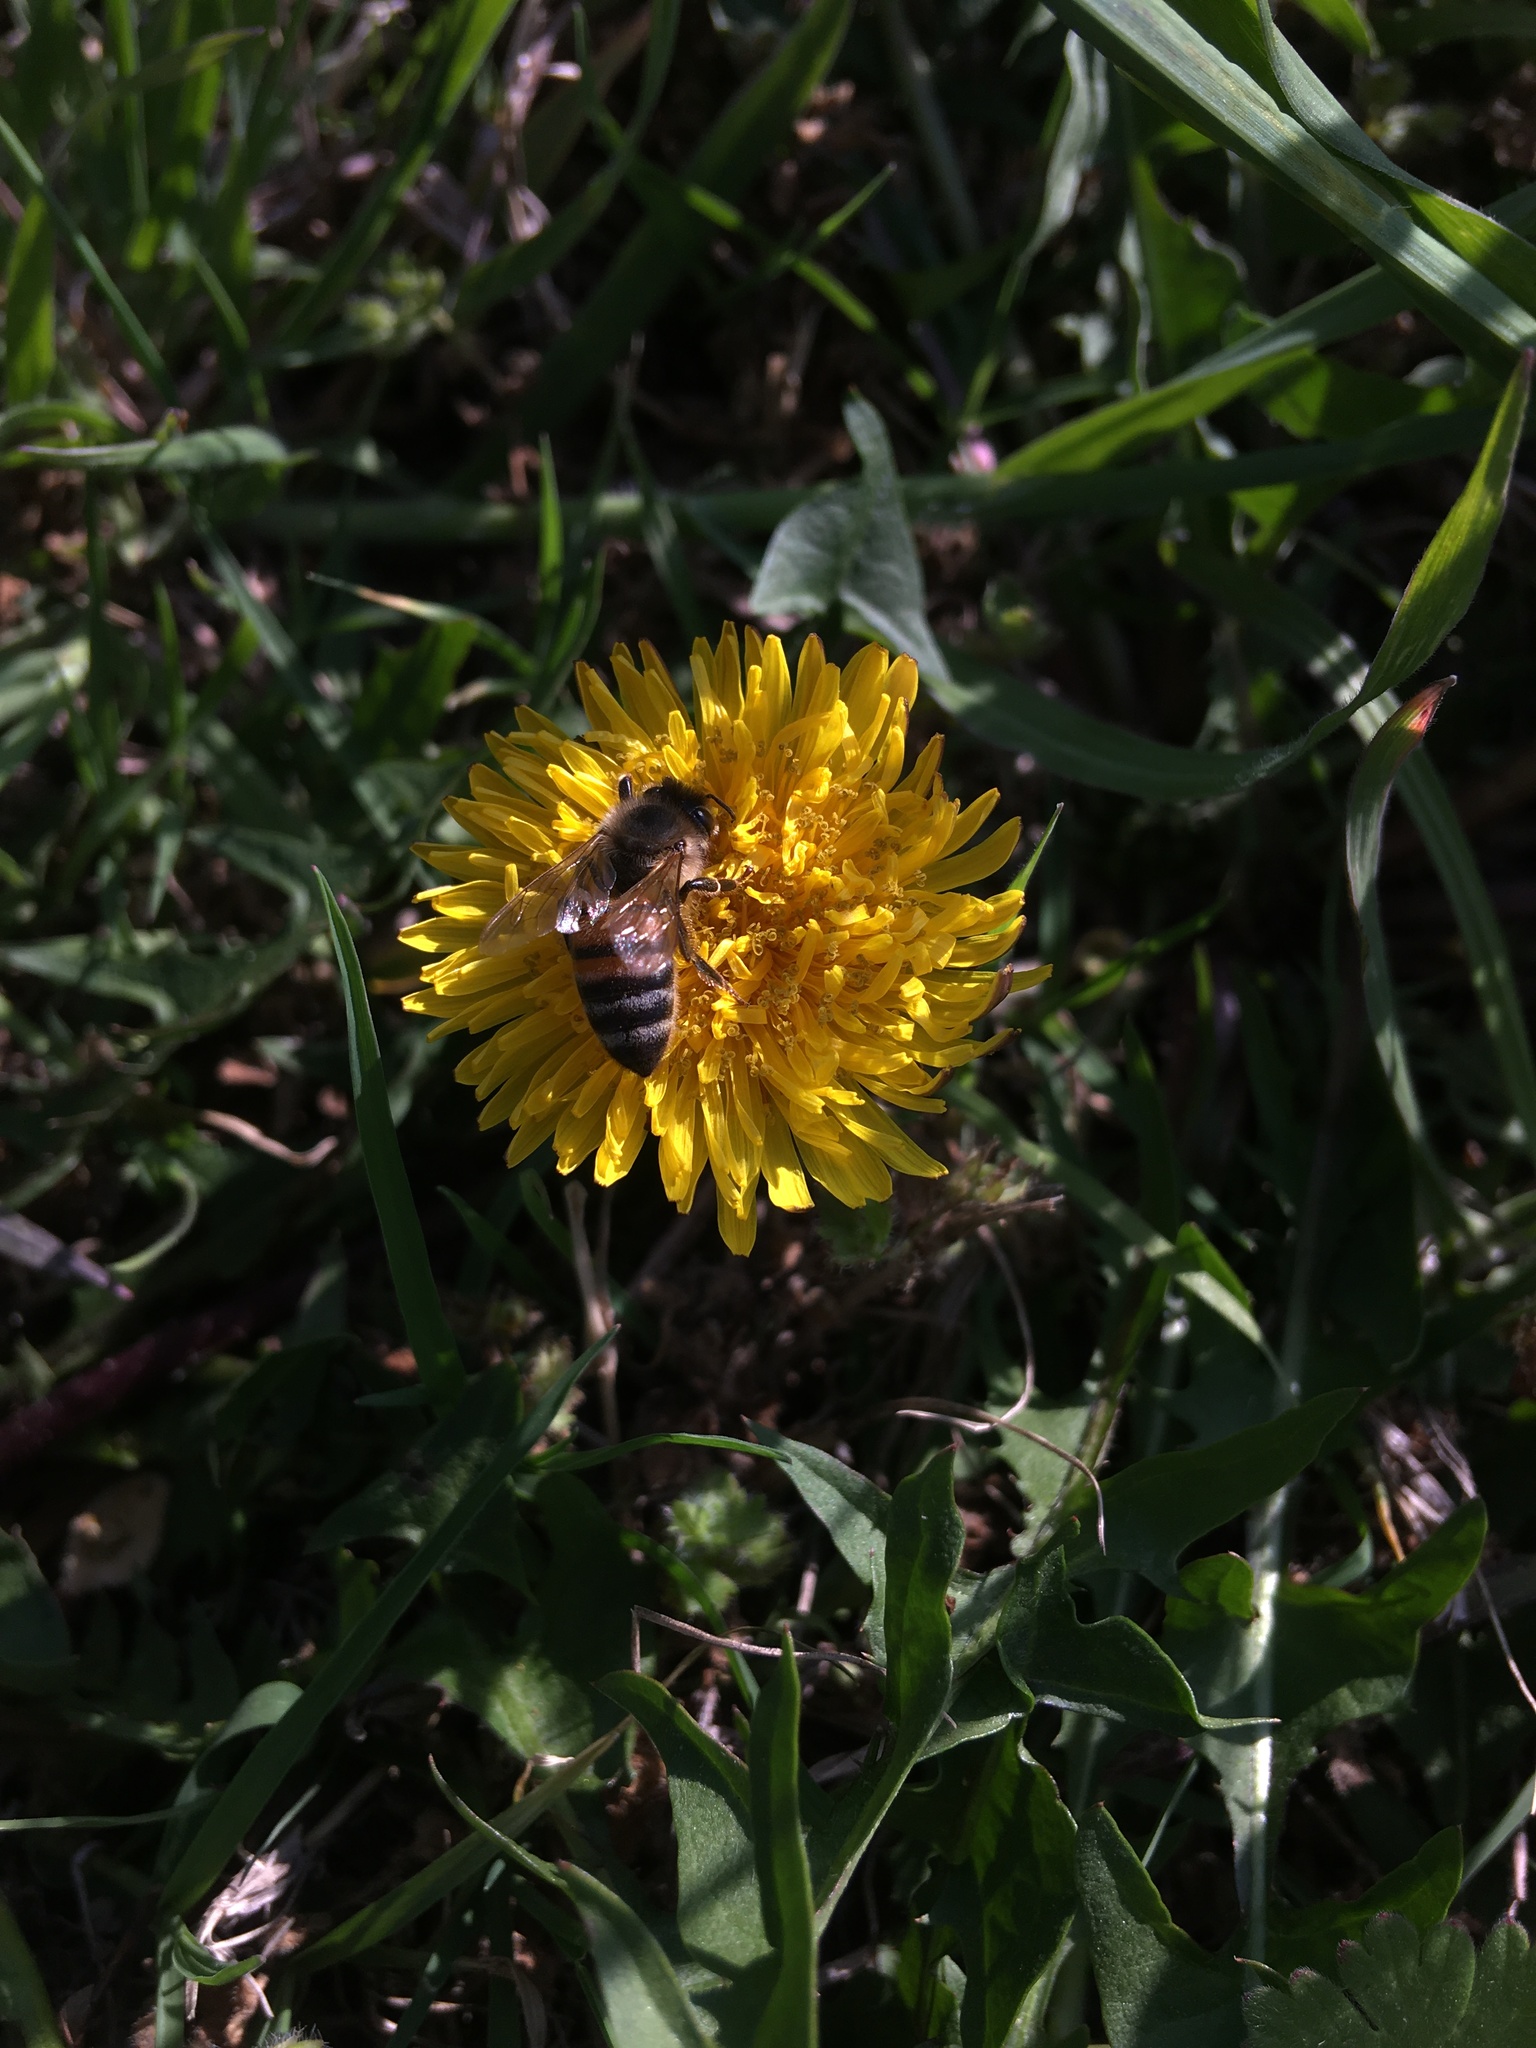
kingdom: Animalia
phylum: Arthropoda
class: Insecta
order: Hymenoptera
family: Apidae
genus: Apis
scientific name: Apis mellifera
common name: Honey bee
